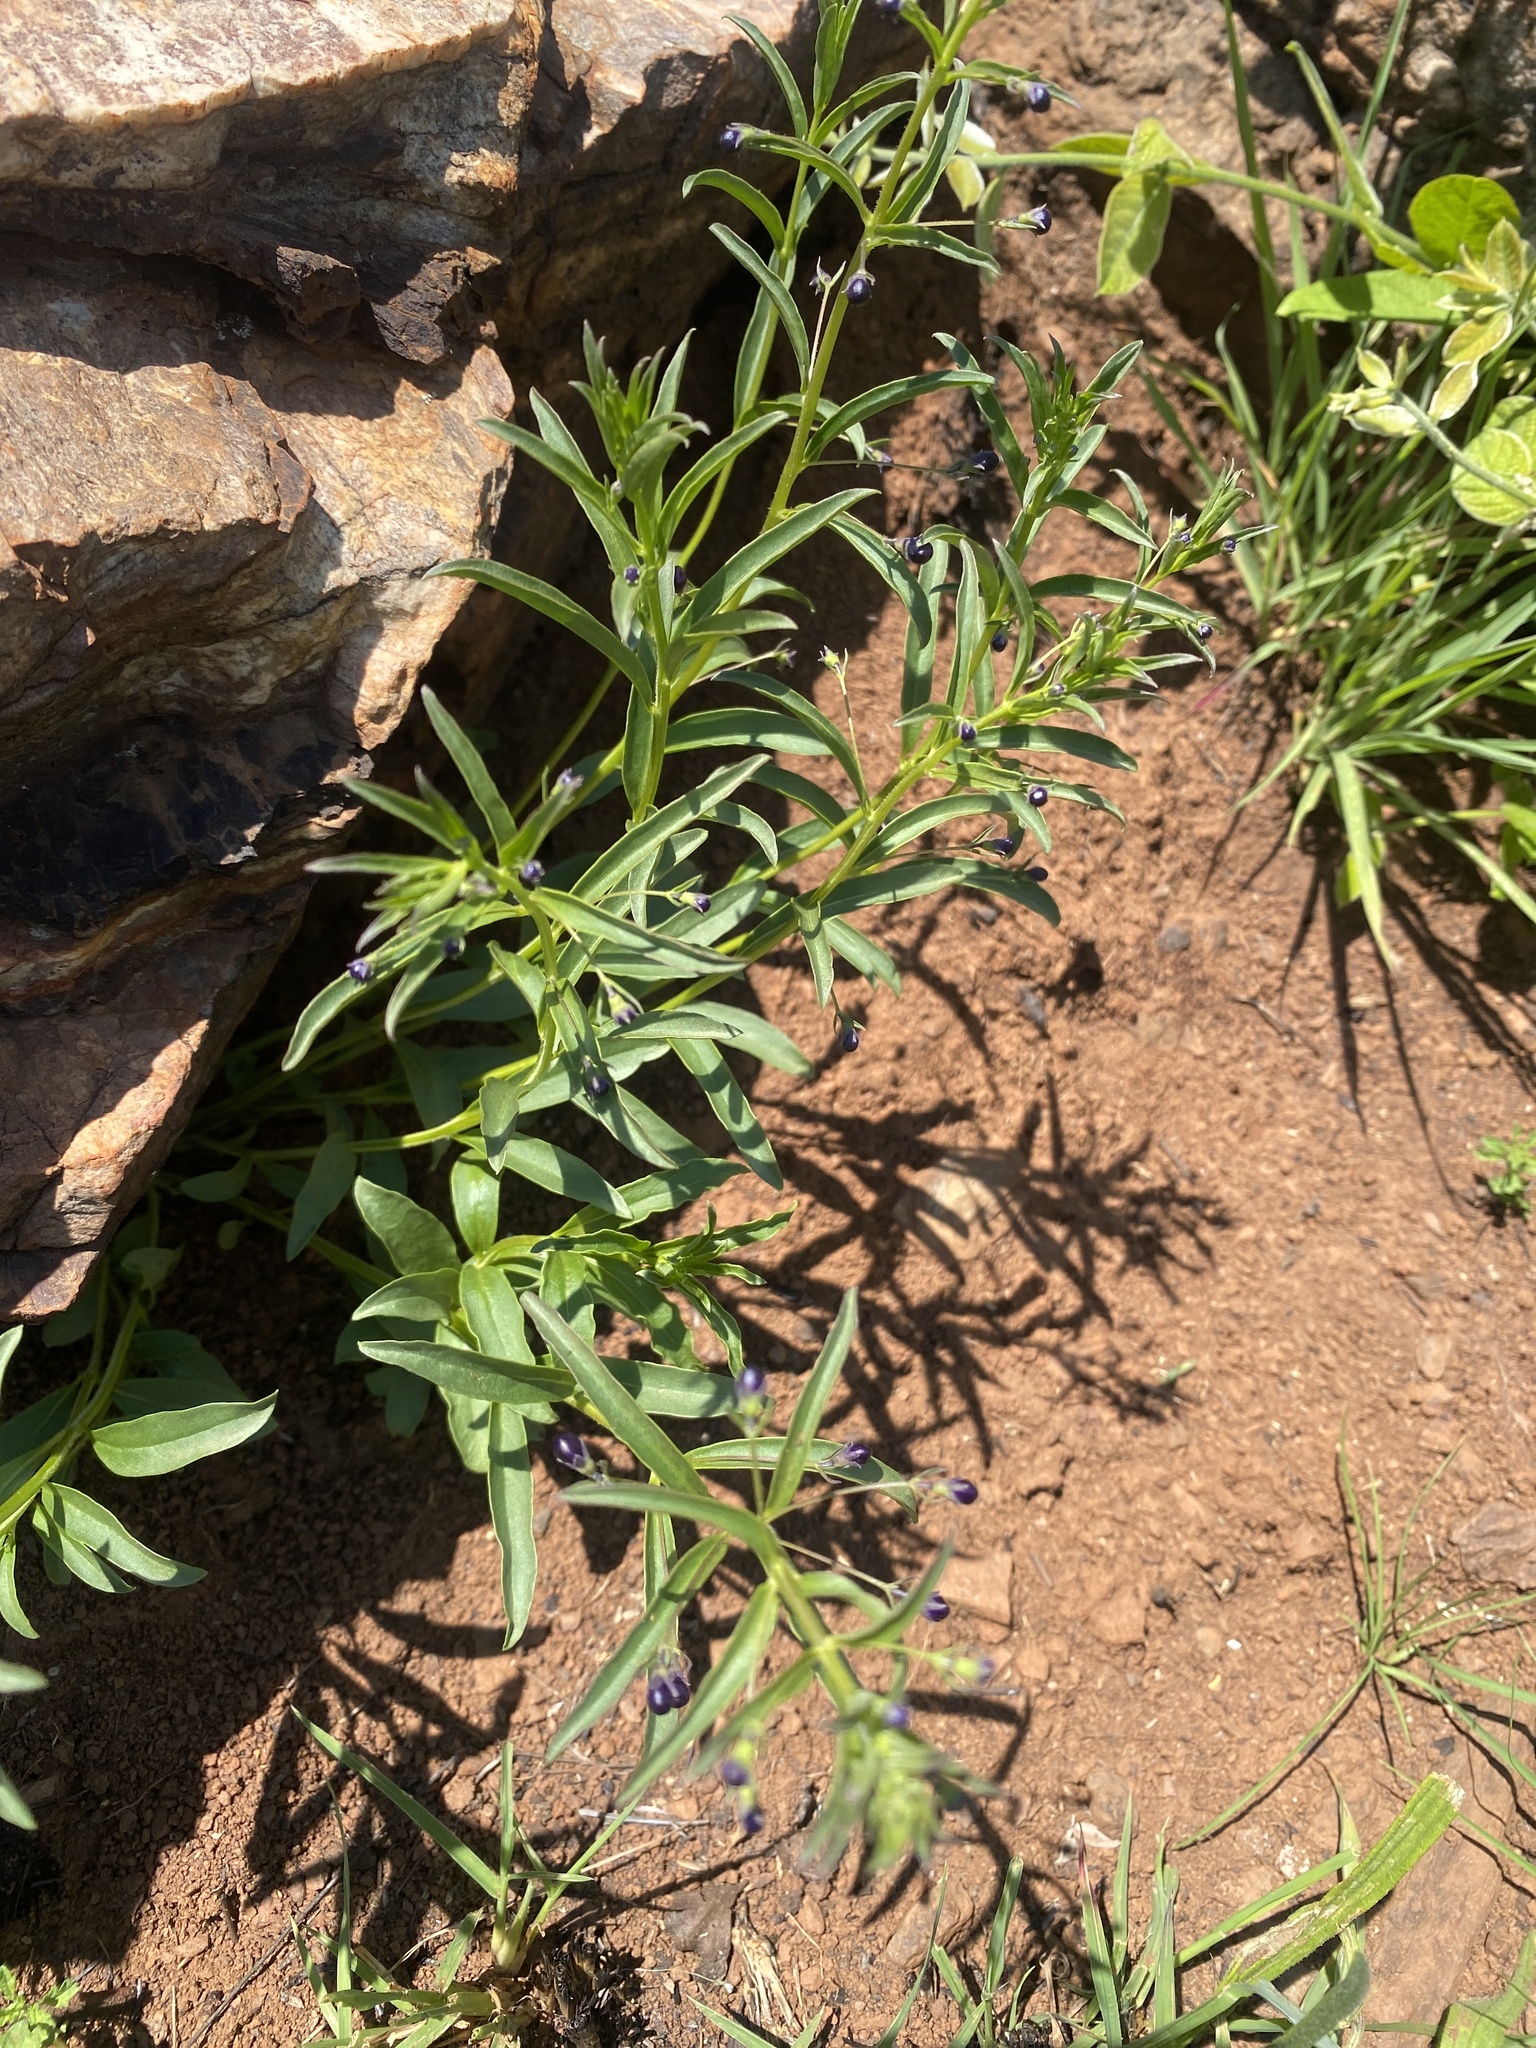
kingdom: Plantae
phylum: Tracheophyta
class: Magnoliopsida
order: Lamiales
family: Lamiaceae
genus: Rotheca
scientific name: Rotheca hirsuta
